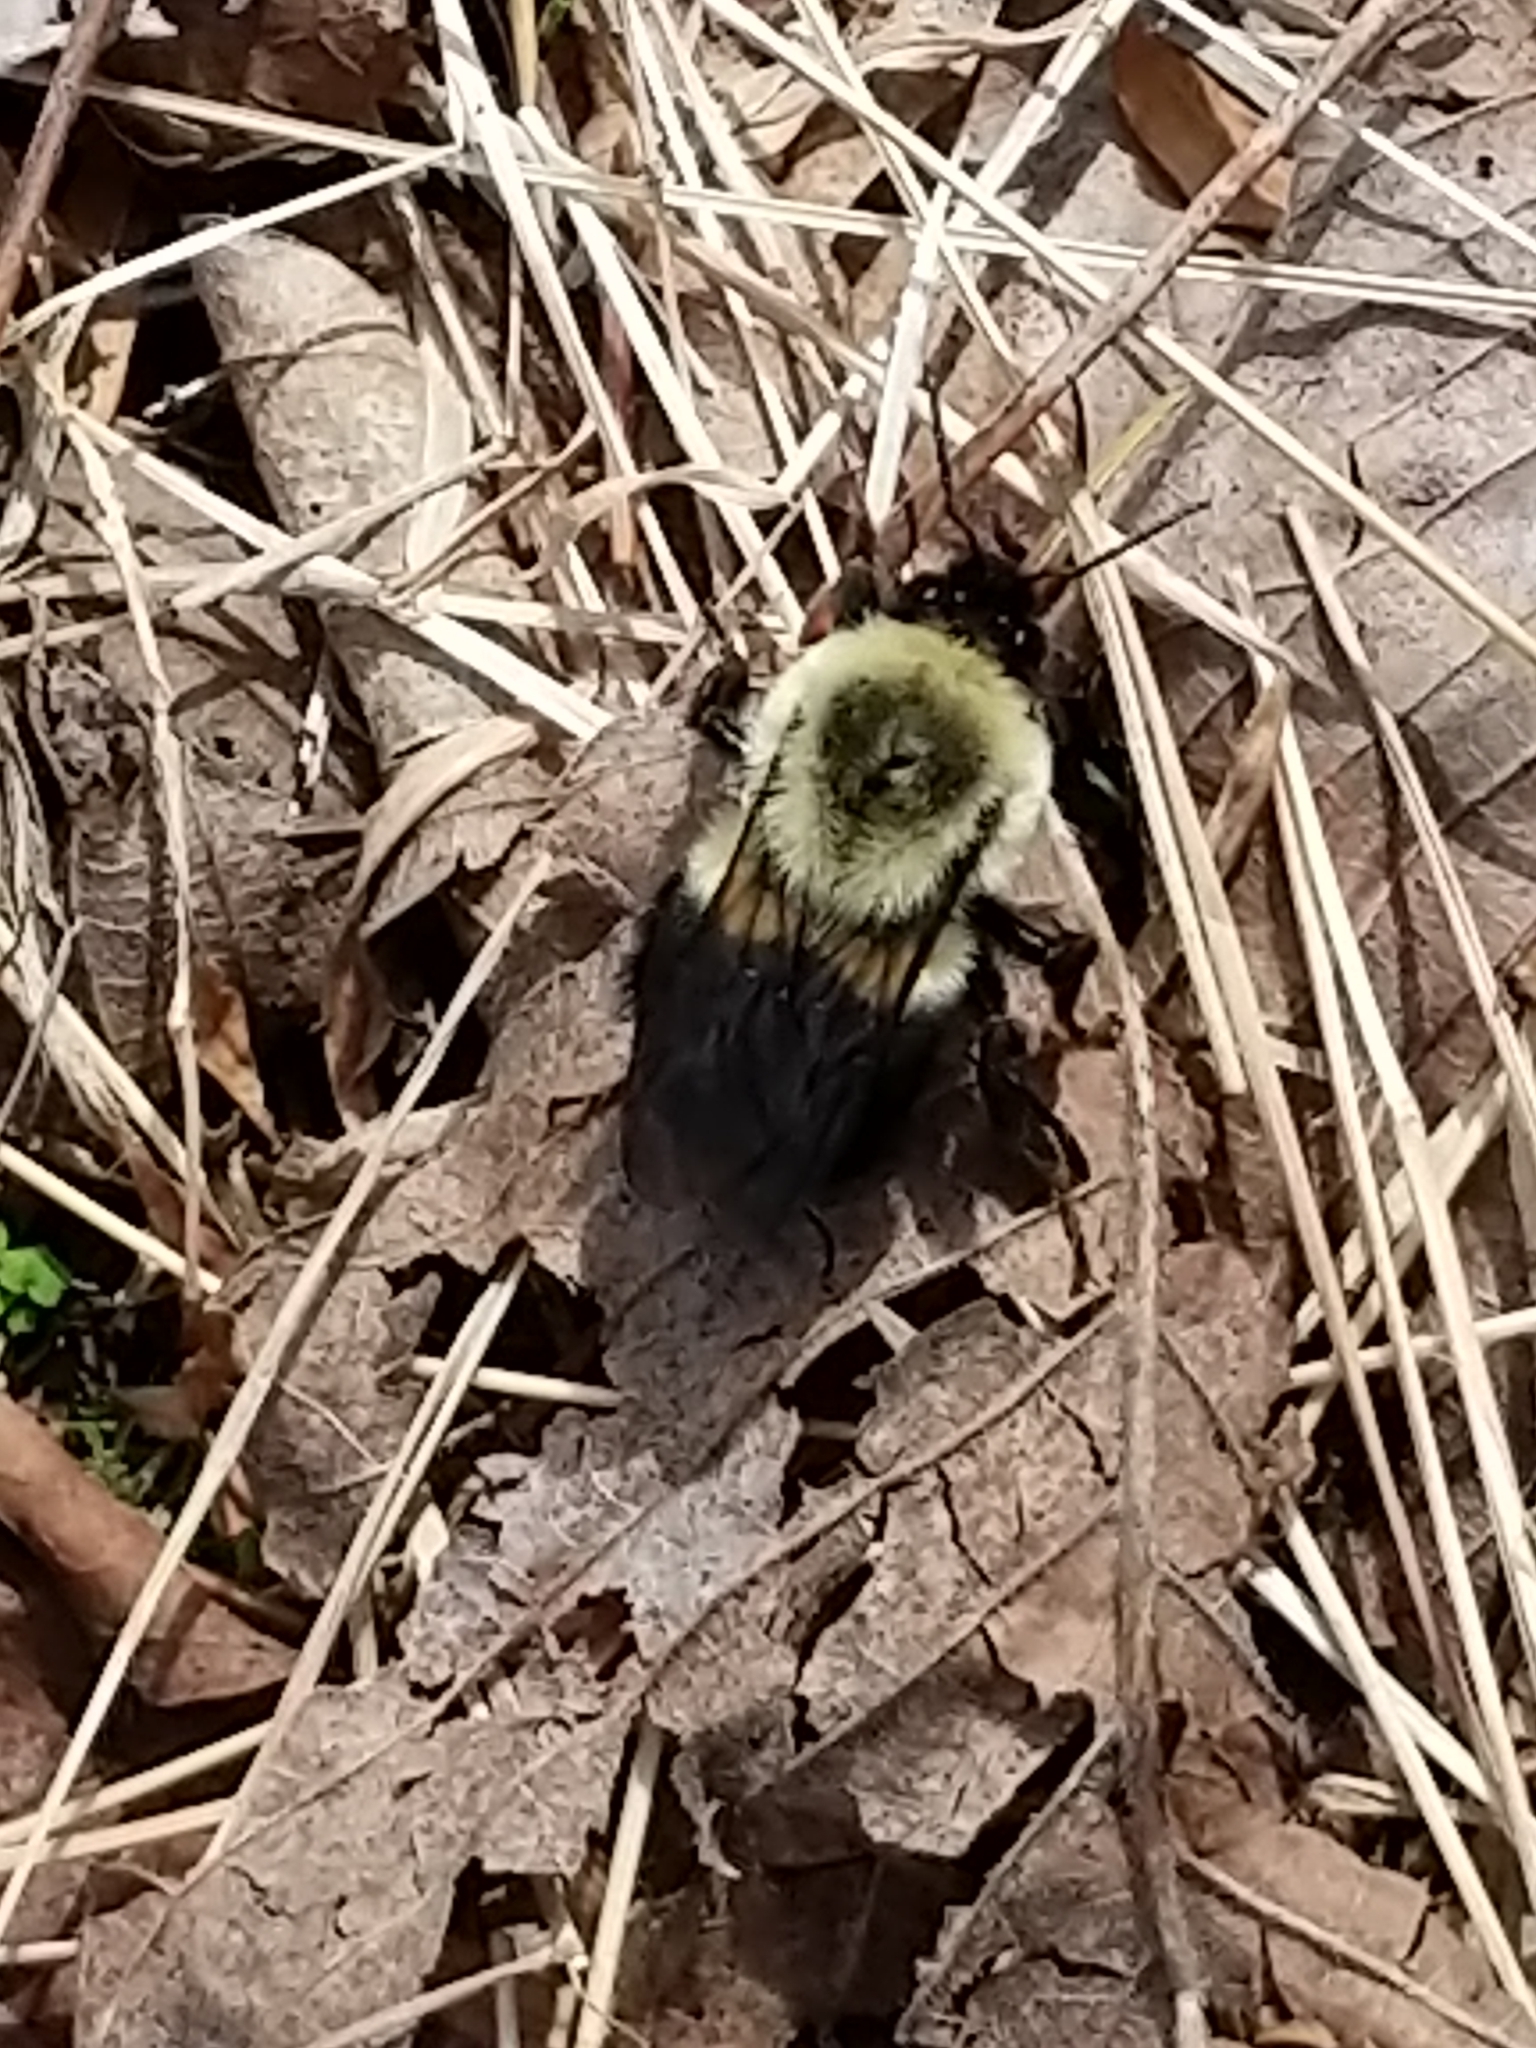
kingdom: Animalia
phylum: Arthropoda
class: Insecta
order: Hymenoptera
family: Apidae
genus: Bombus
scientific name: Bombus impatiens
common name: Common eastern bumble bee
